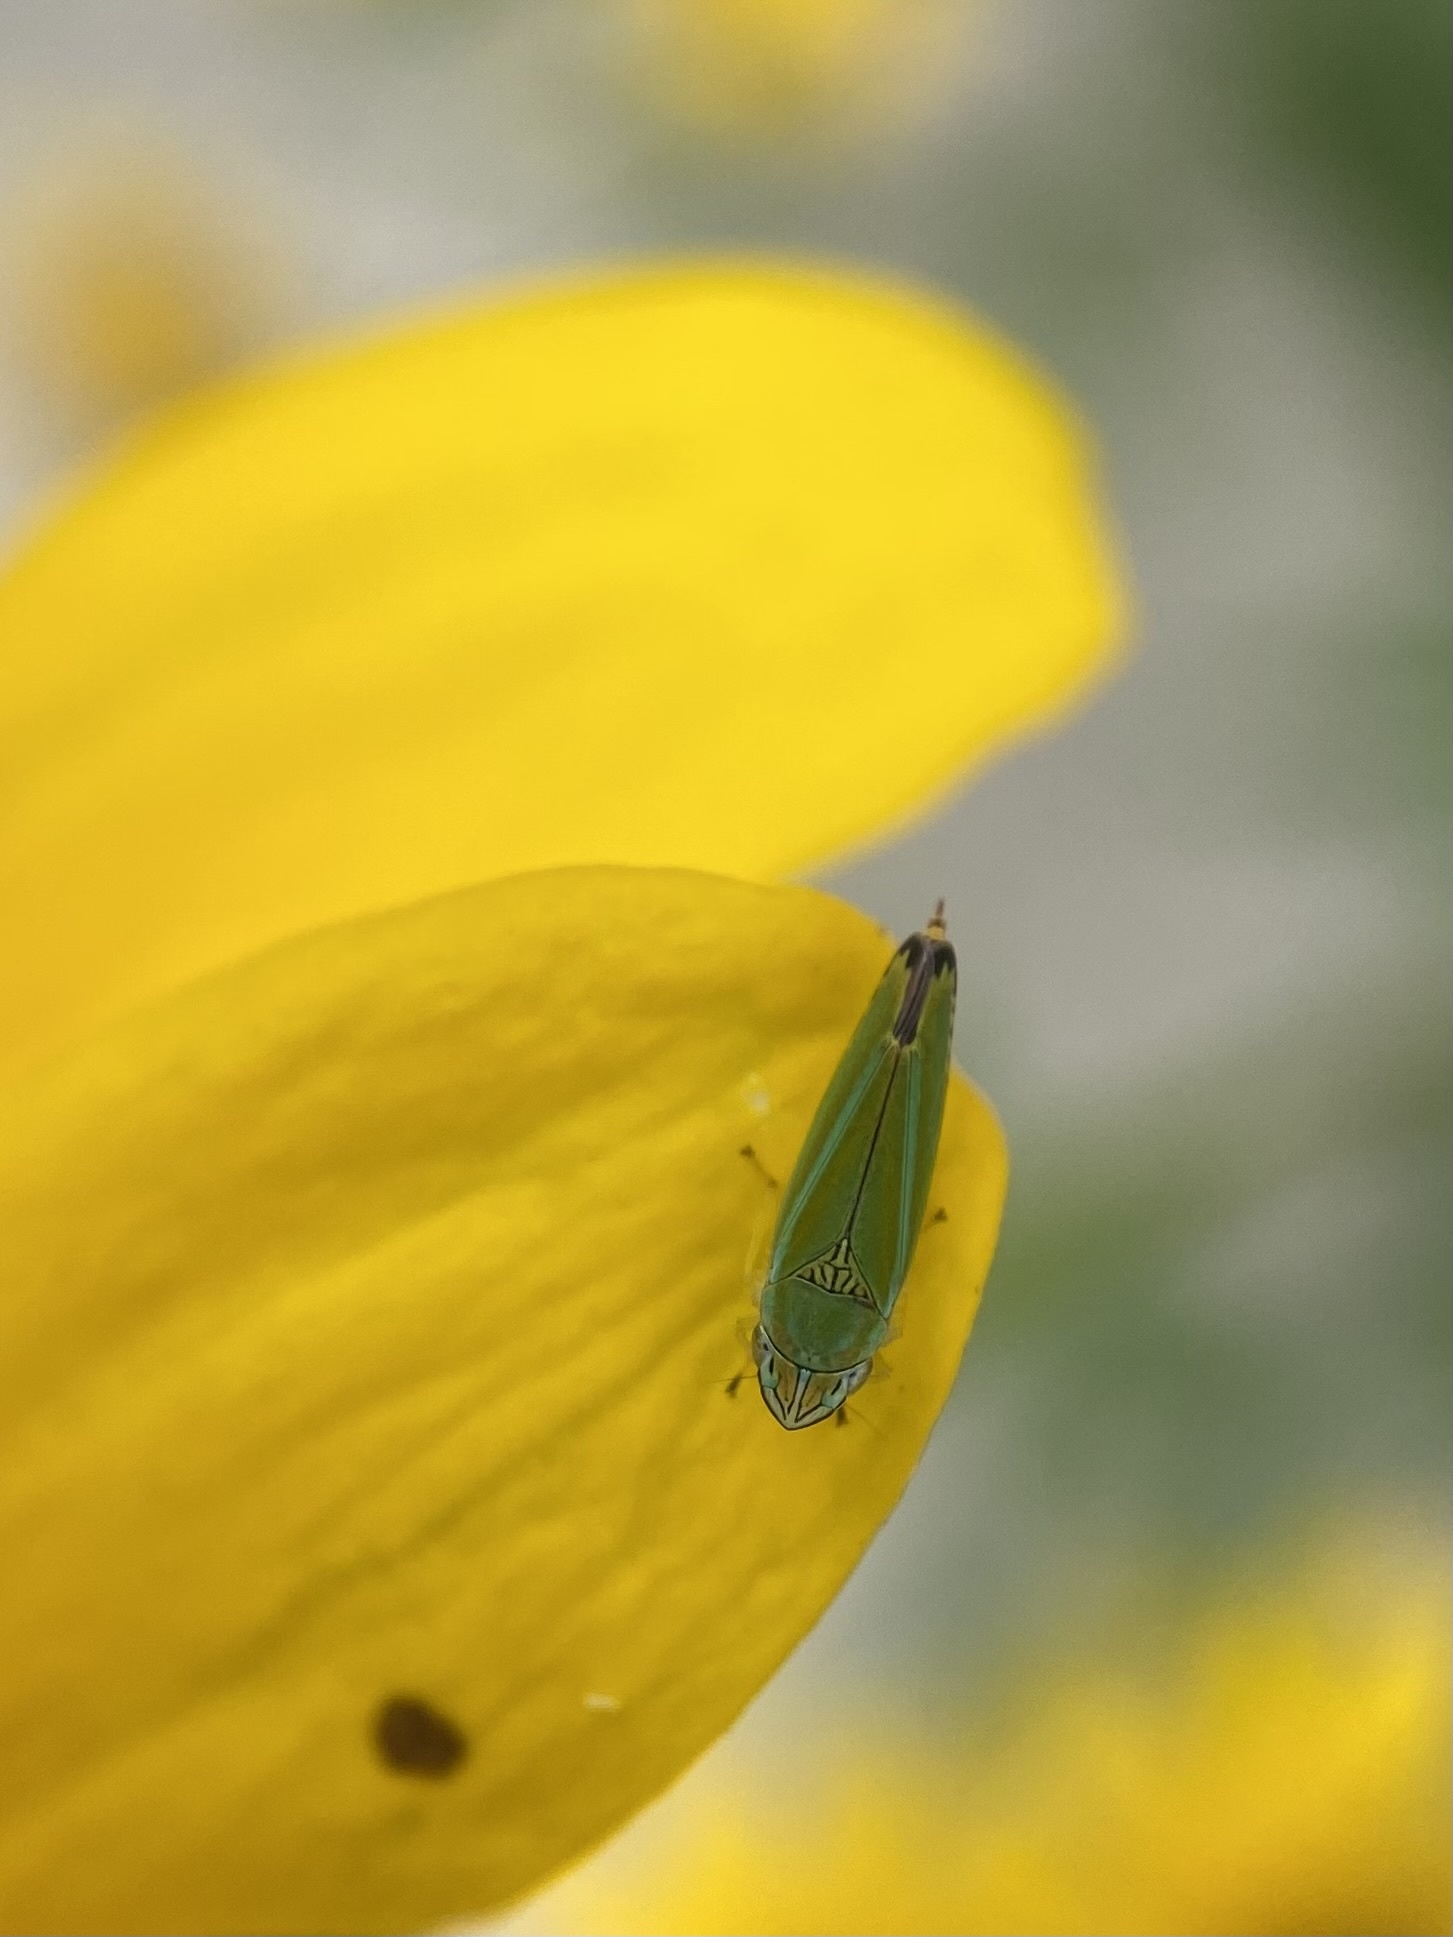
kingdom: Animalia
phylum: Arthropoda
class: Insecta
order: Hemiptera
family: Cicadellidae
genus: Graphocephala
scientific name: Graphocephala versuta
